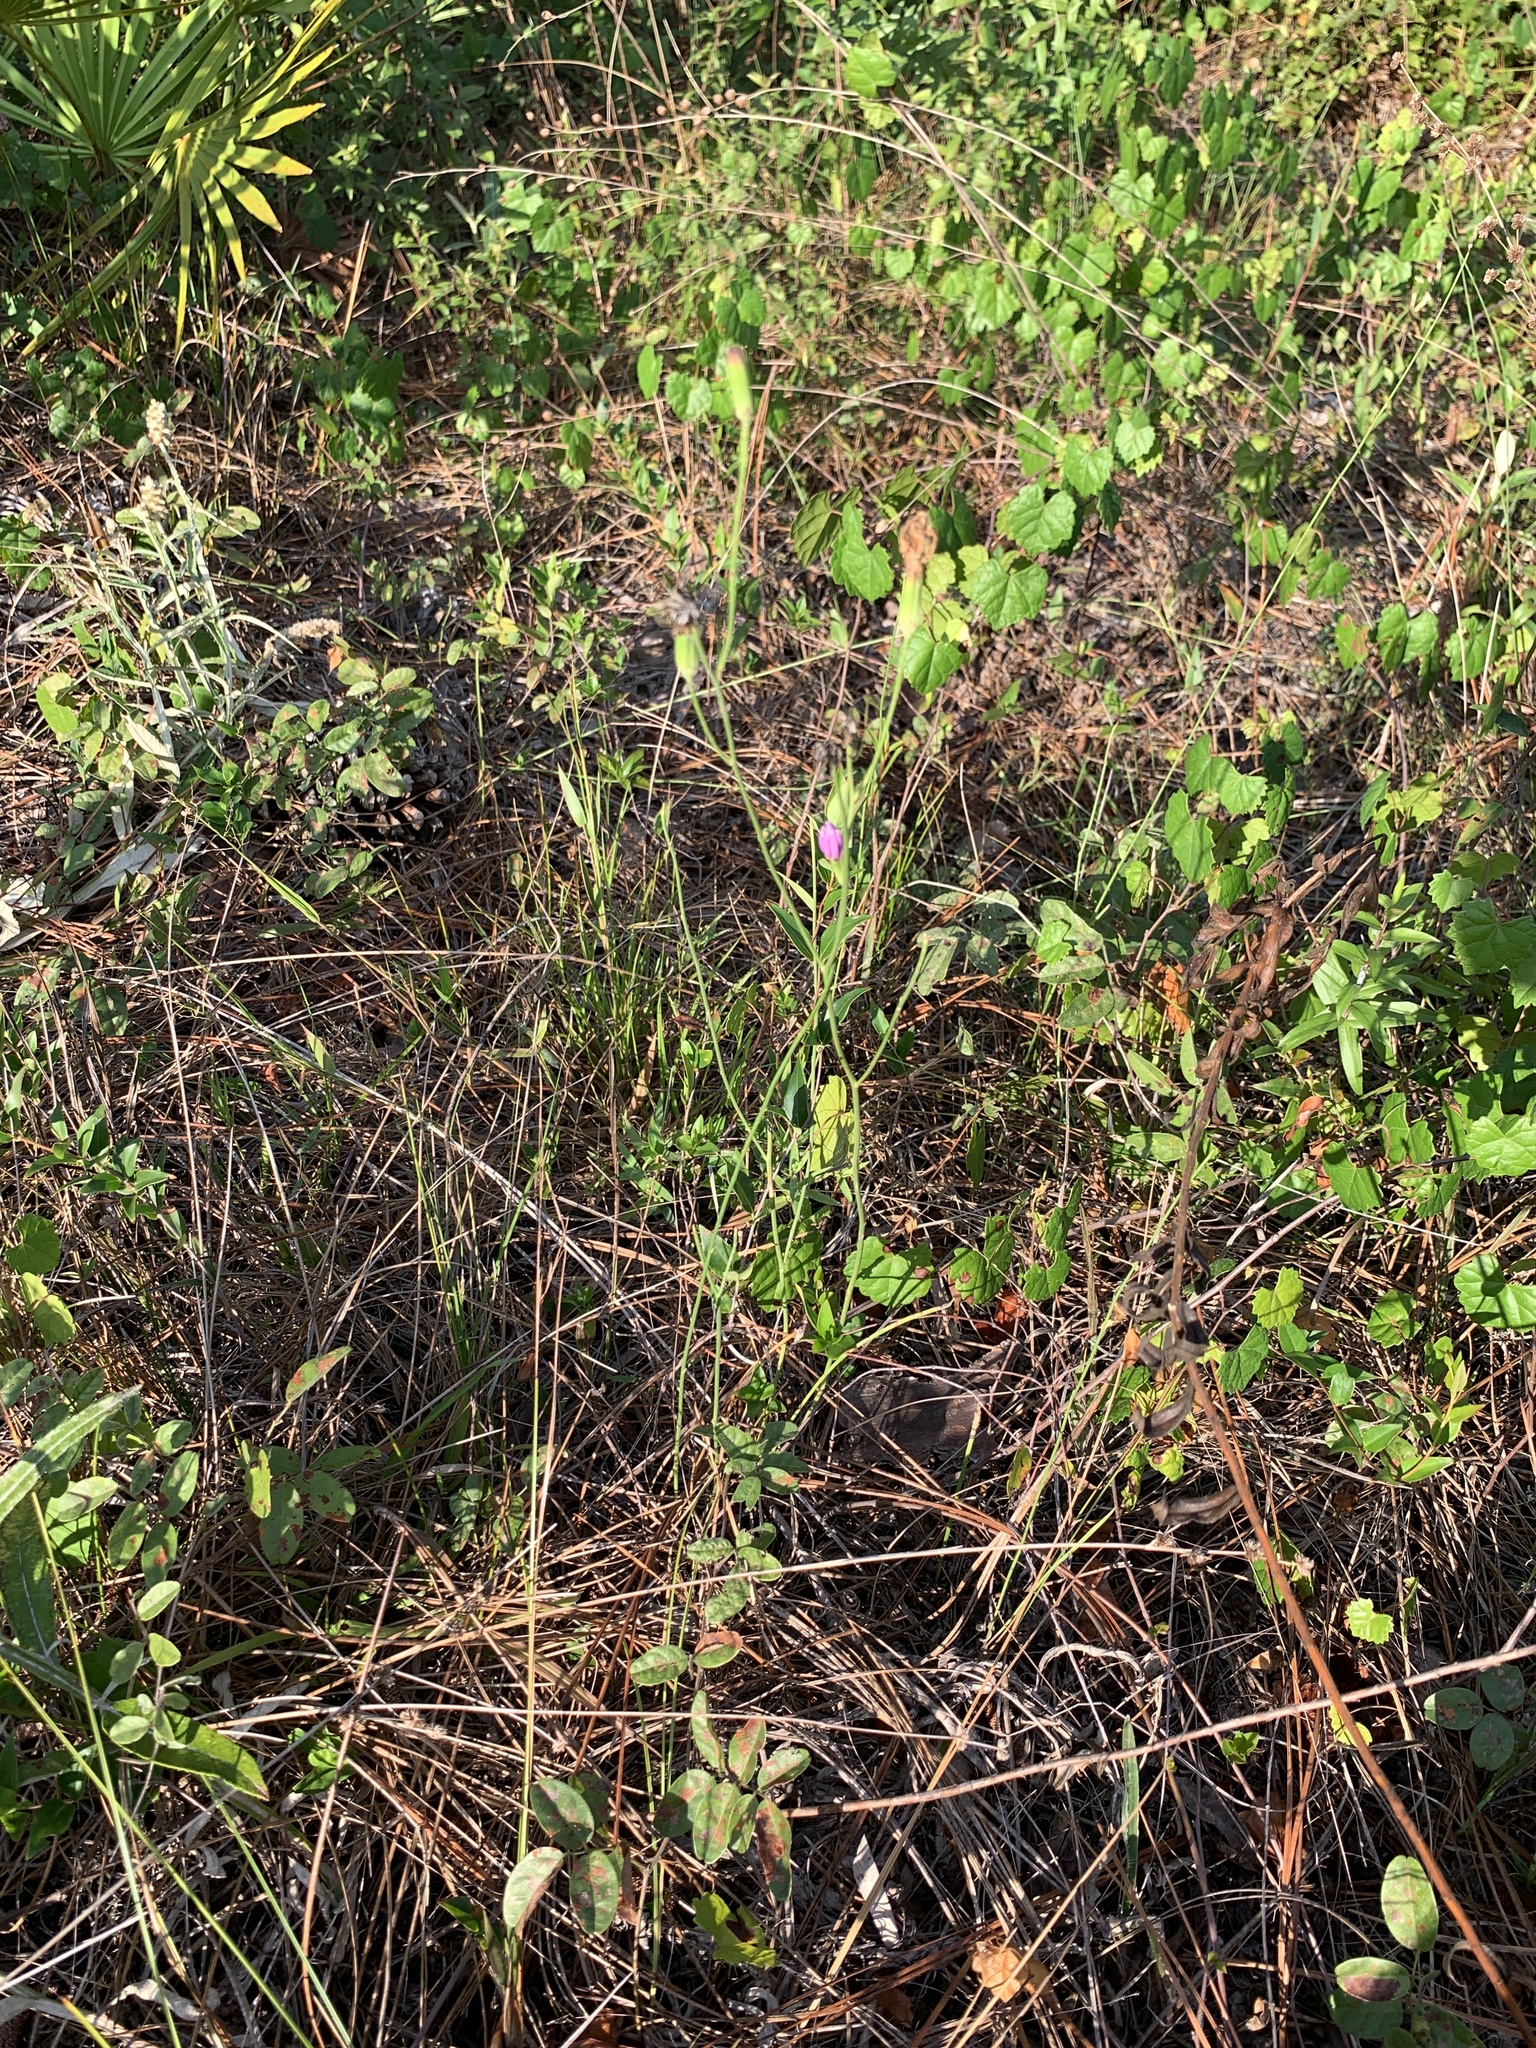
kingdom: Plantae
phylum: Tracheophyta
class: Magnoliopsida
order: Asterales
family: Asteraceae
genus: Lygodesmia
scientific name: Lygodesmia aphylla
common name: Rose-rush
